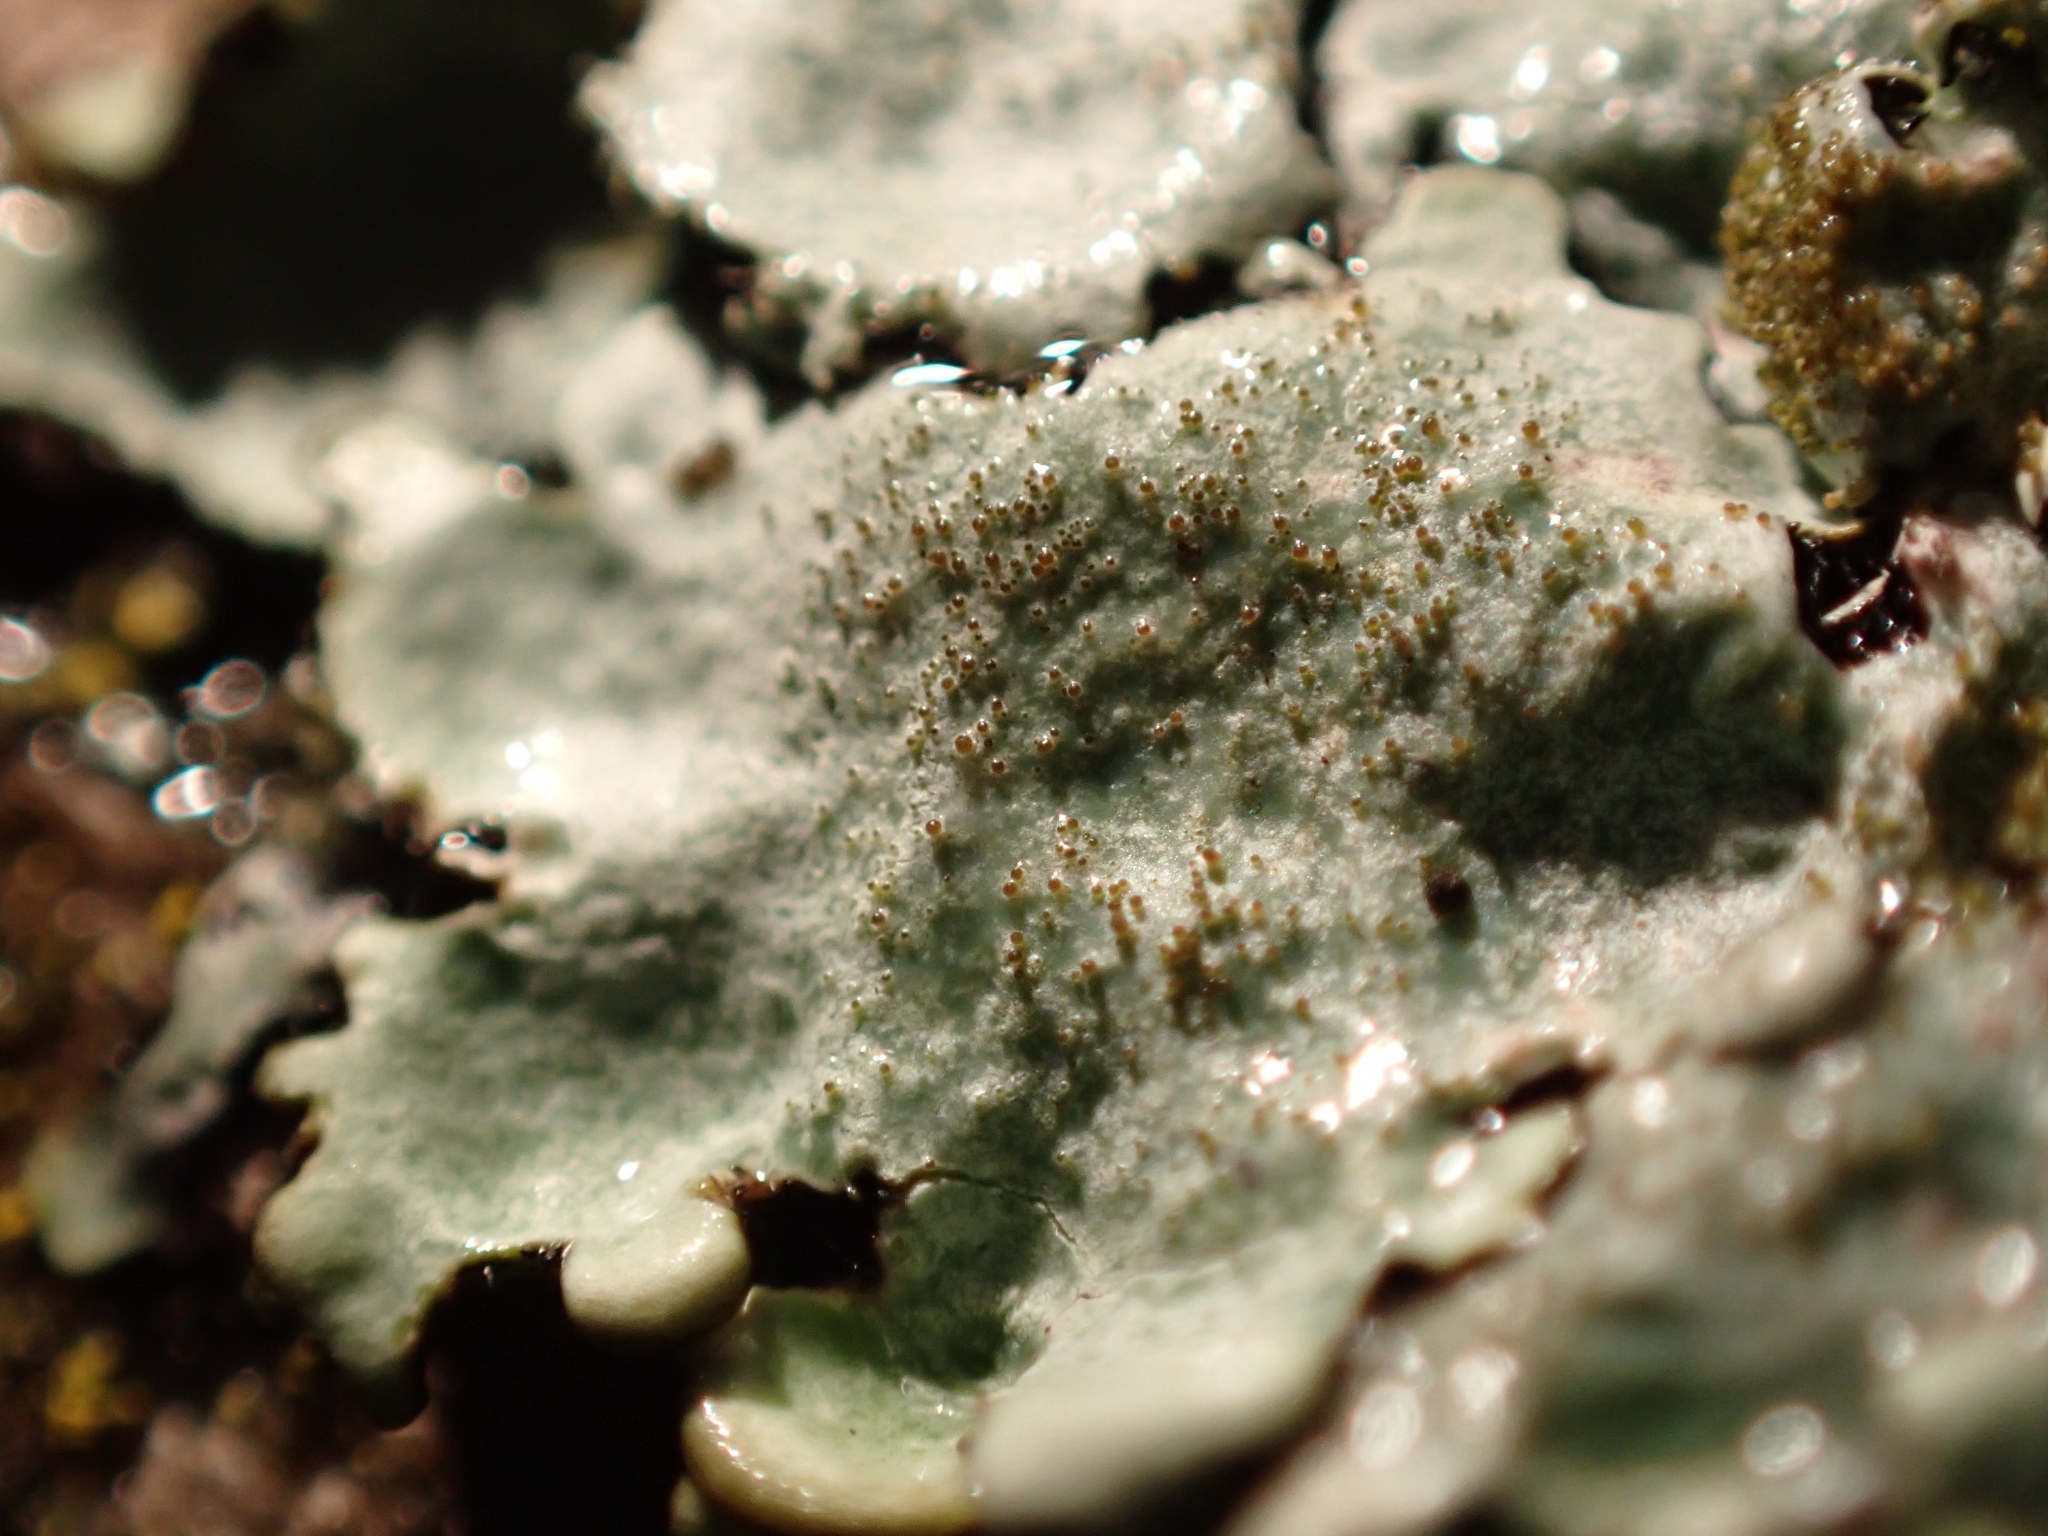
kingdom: Fungi
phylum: Ascomycota
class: Lecanoromycetes
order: Lecanorales
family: Parmeliaceae
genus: Parmelina
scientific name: Parmelina tiliacea
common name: Linden shield lichen
